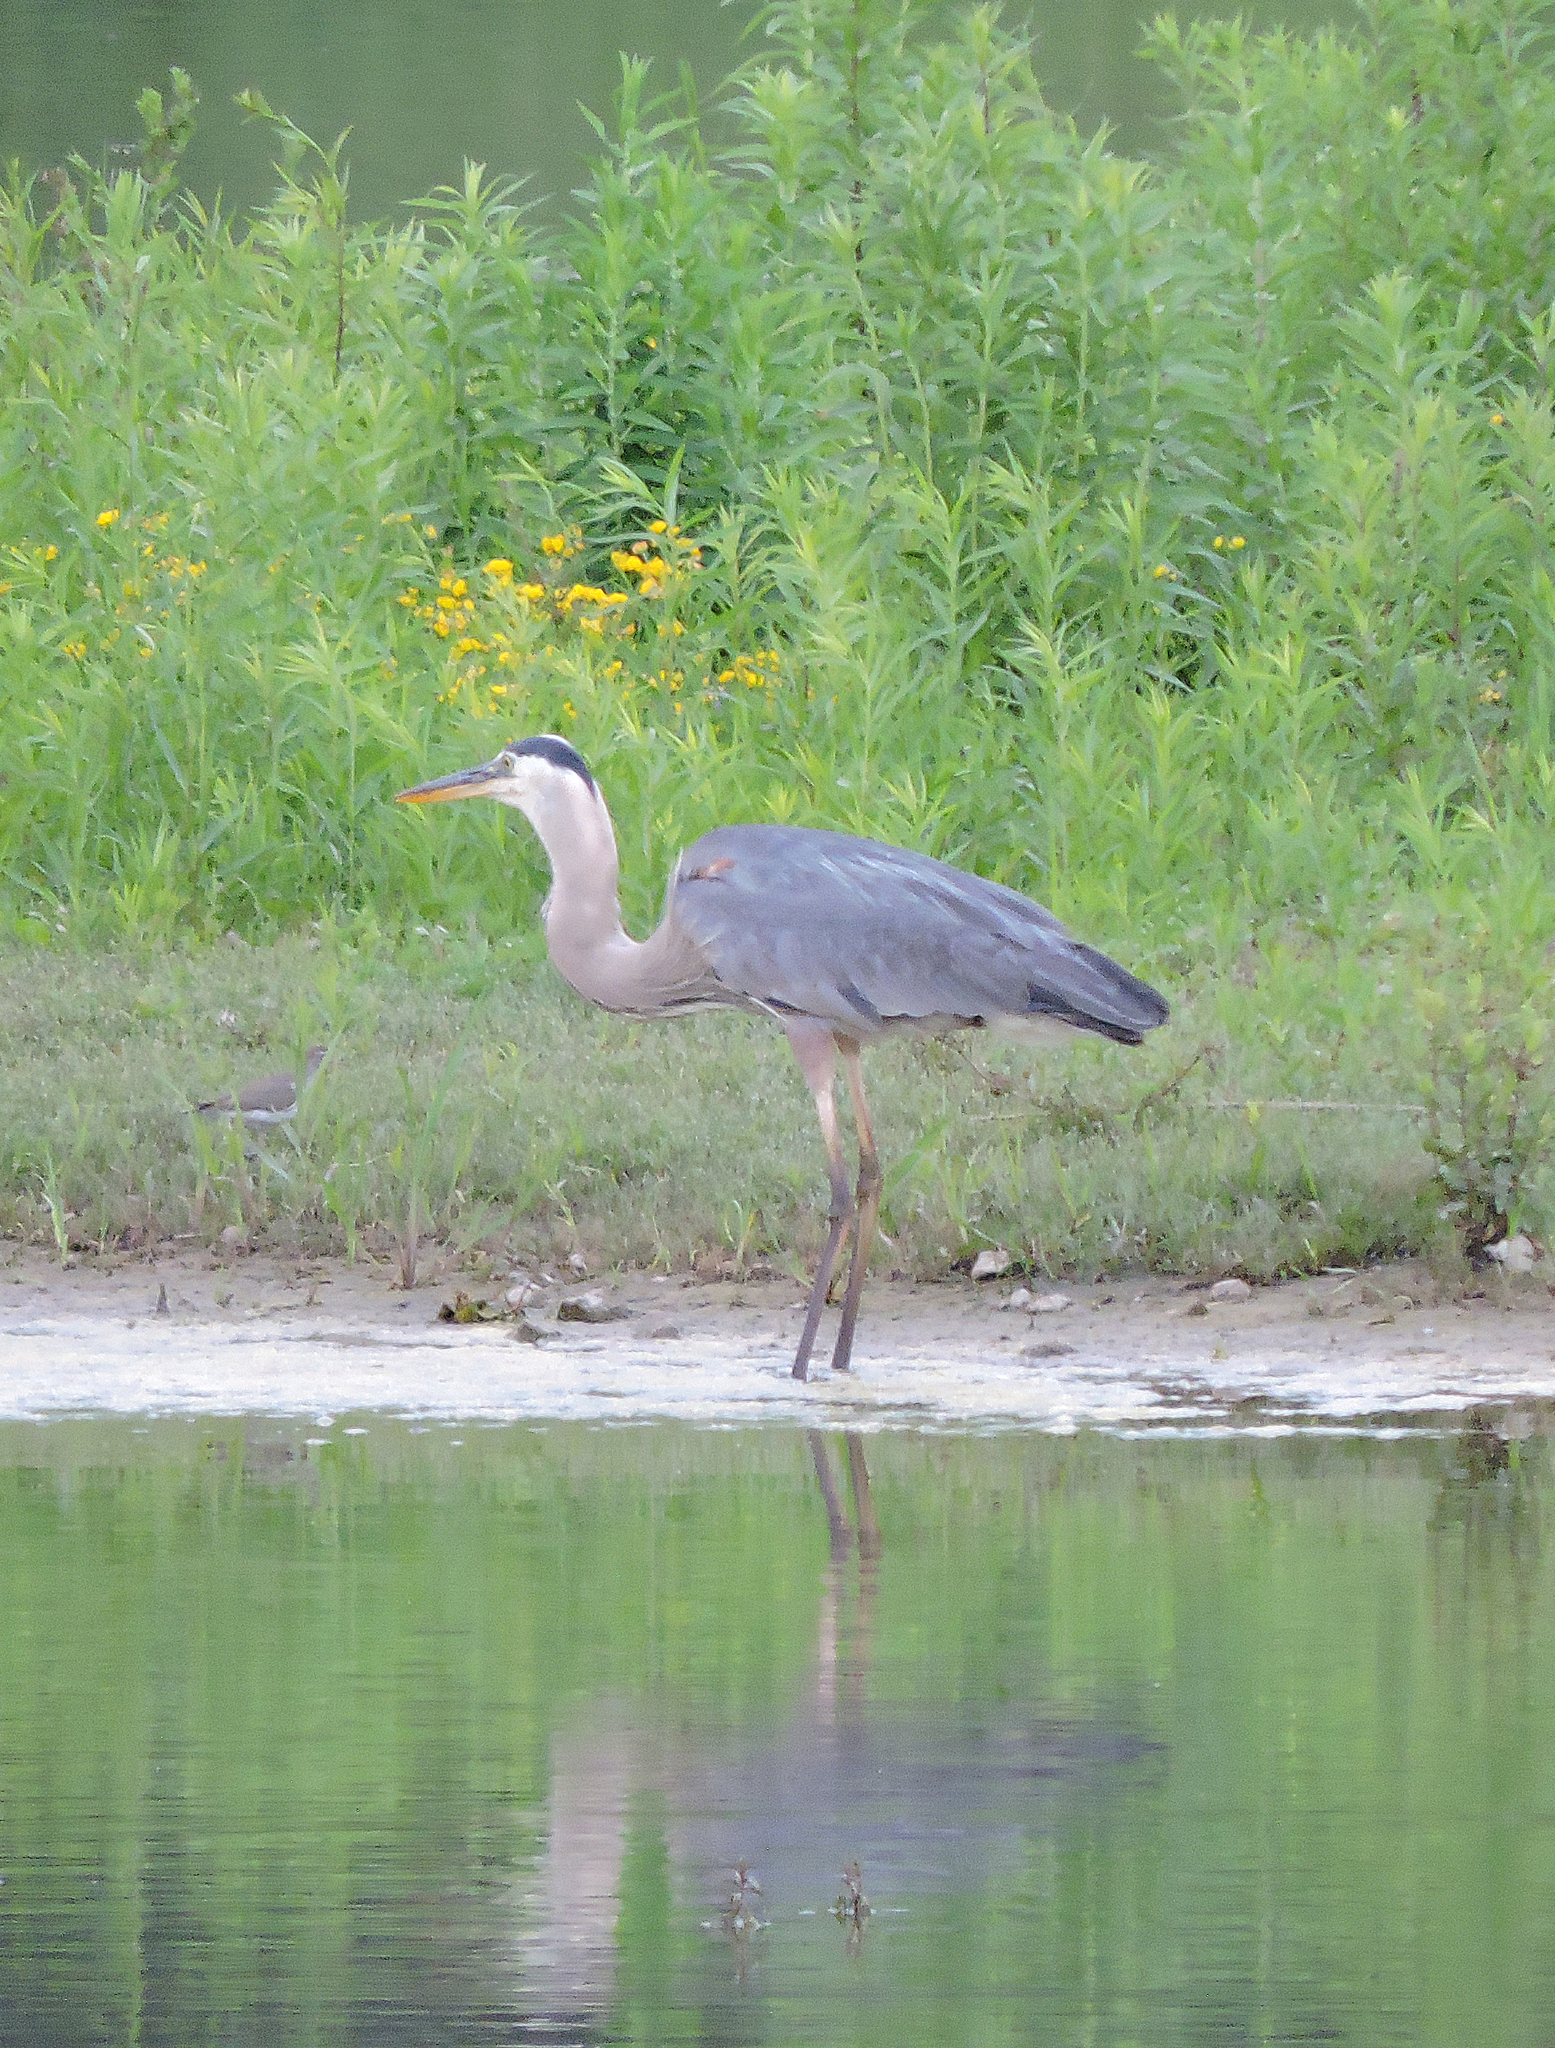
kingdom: Animalia
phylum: Chordata
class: Aves
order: Pelecaniformes
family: Ardeidae
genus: Ardea
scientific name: Ardea herodias
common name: Great blue heron
